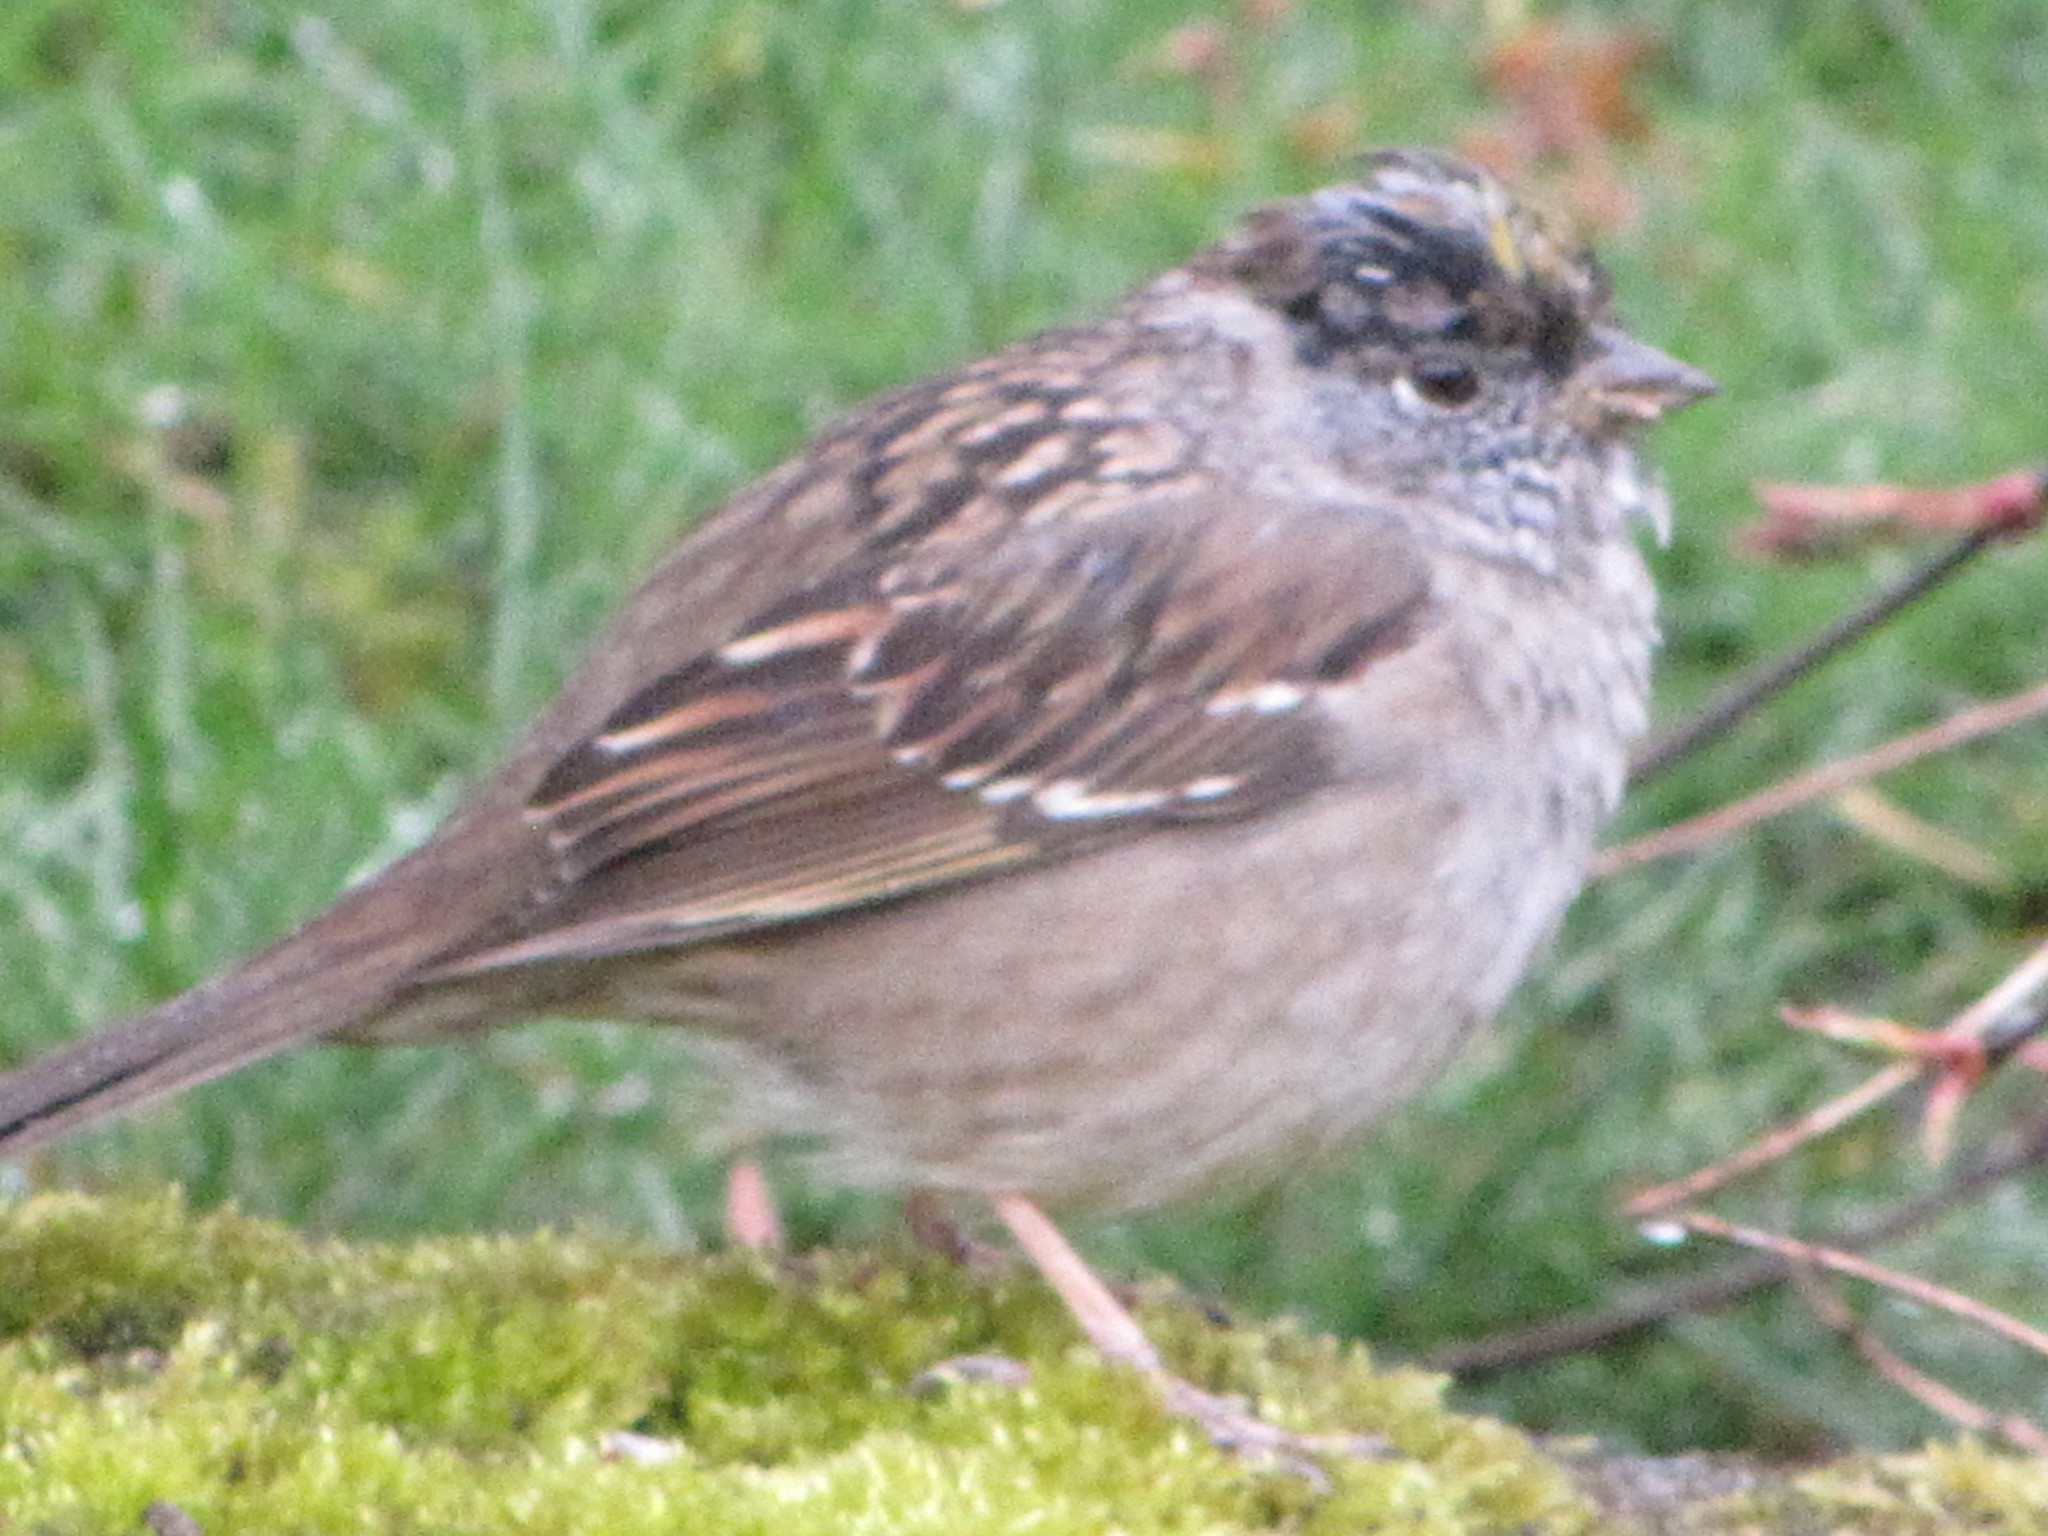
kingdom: Animalia
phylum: Chordata
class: Aves
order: Passeriformes
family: Passerellidae
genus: Zonotrichia
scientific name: Zonotrichia atricapilla
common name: Golden-crowned sparrow
